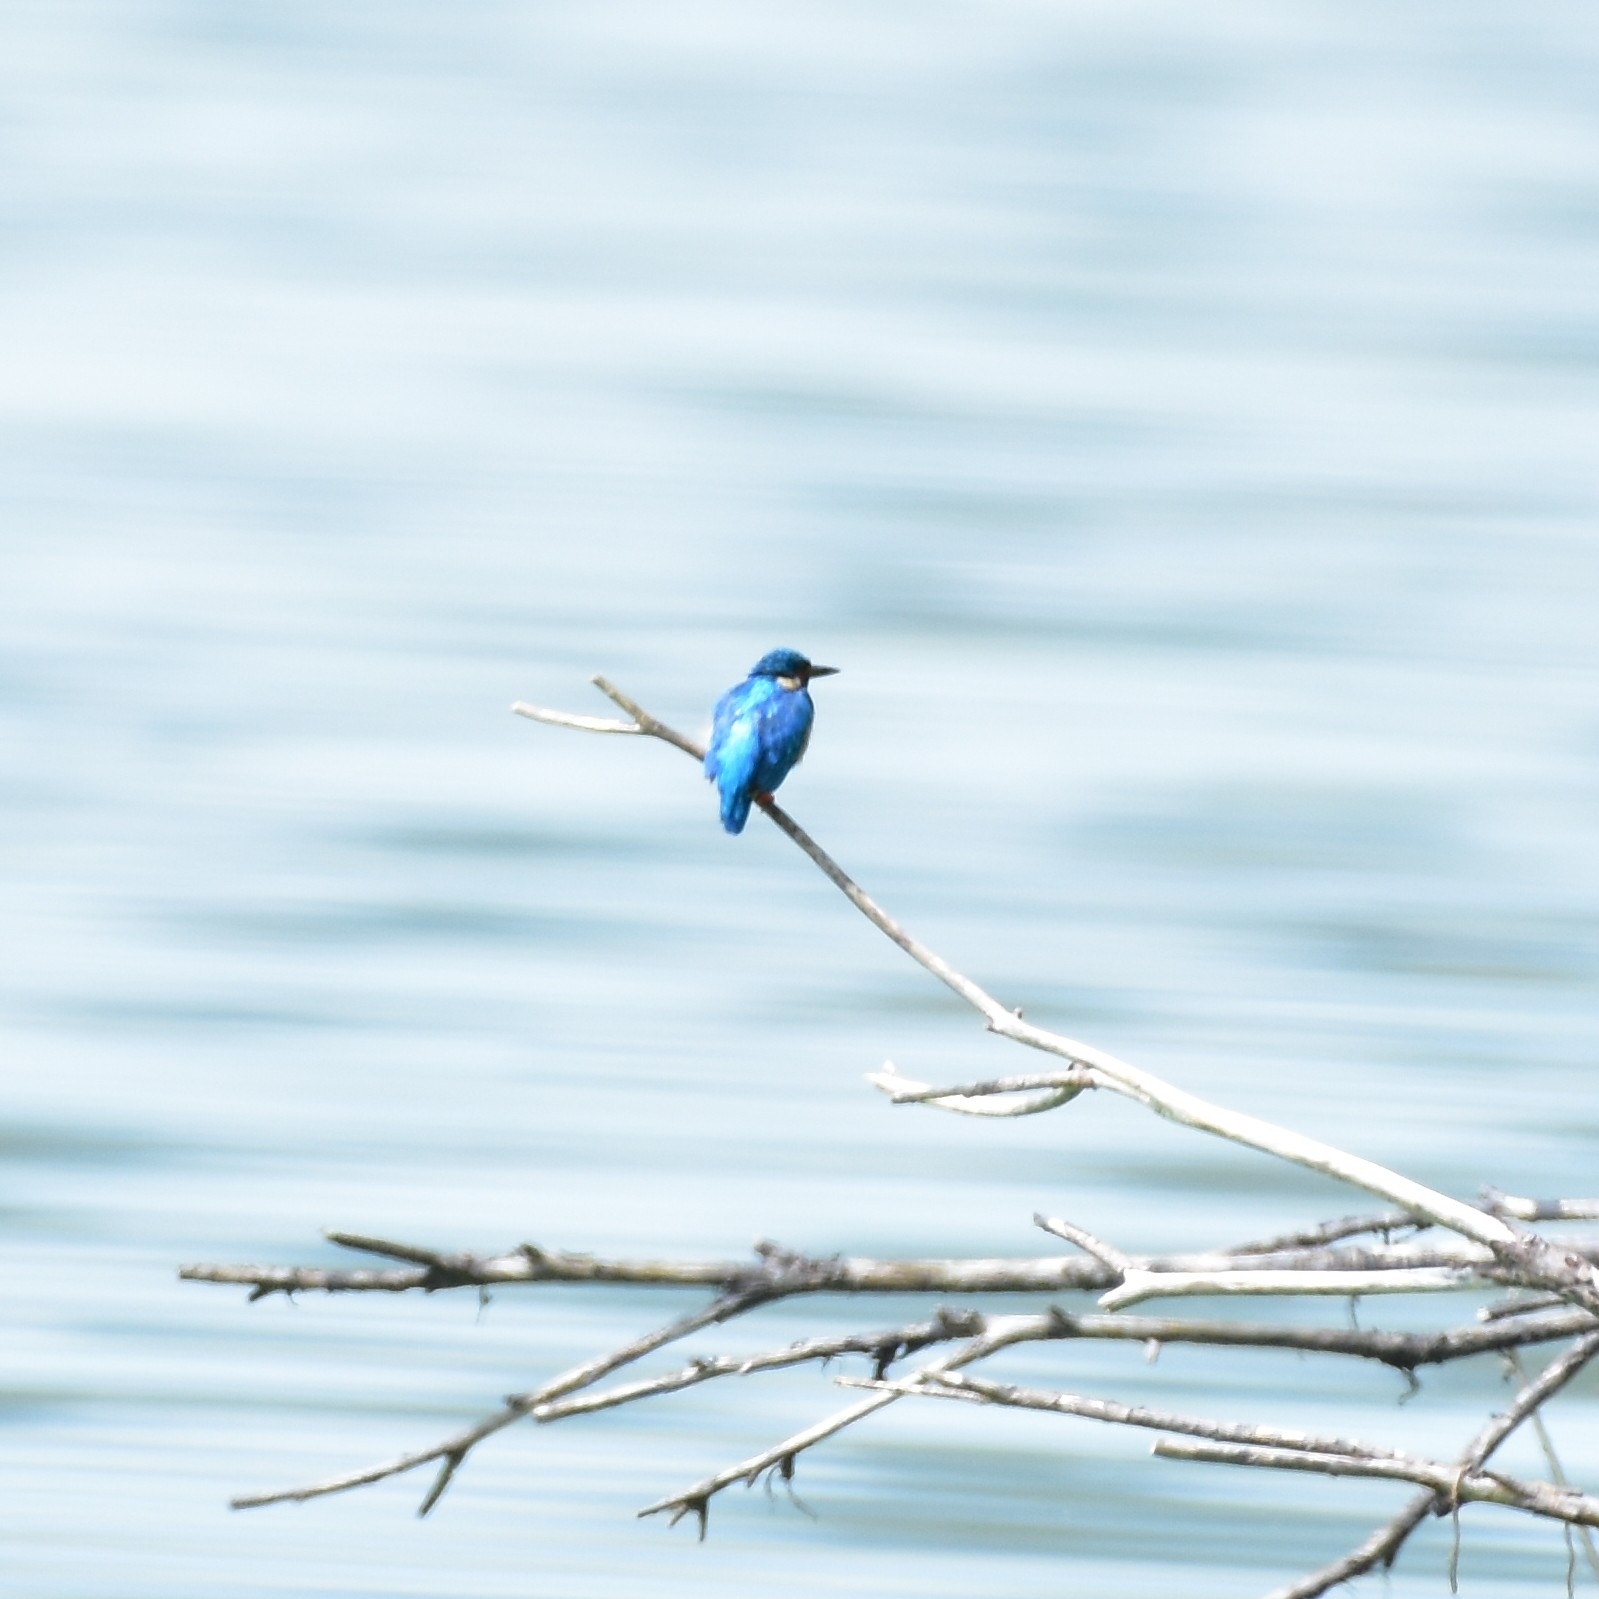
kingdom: Animalia
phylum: Chordata
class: Aves
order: Coraciiformes
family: Alcedinidae
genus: Alcedo
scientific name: Alcedo atthis
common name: Common kingfisher
